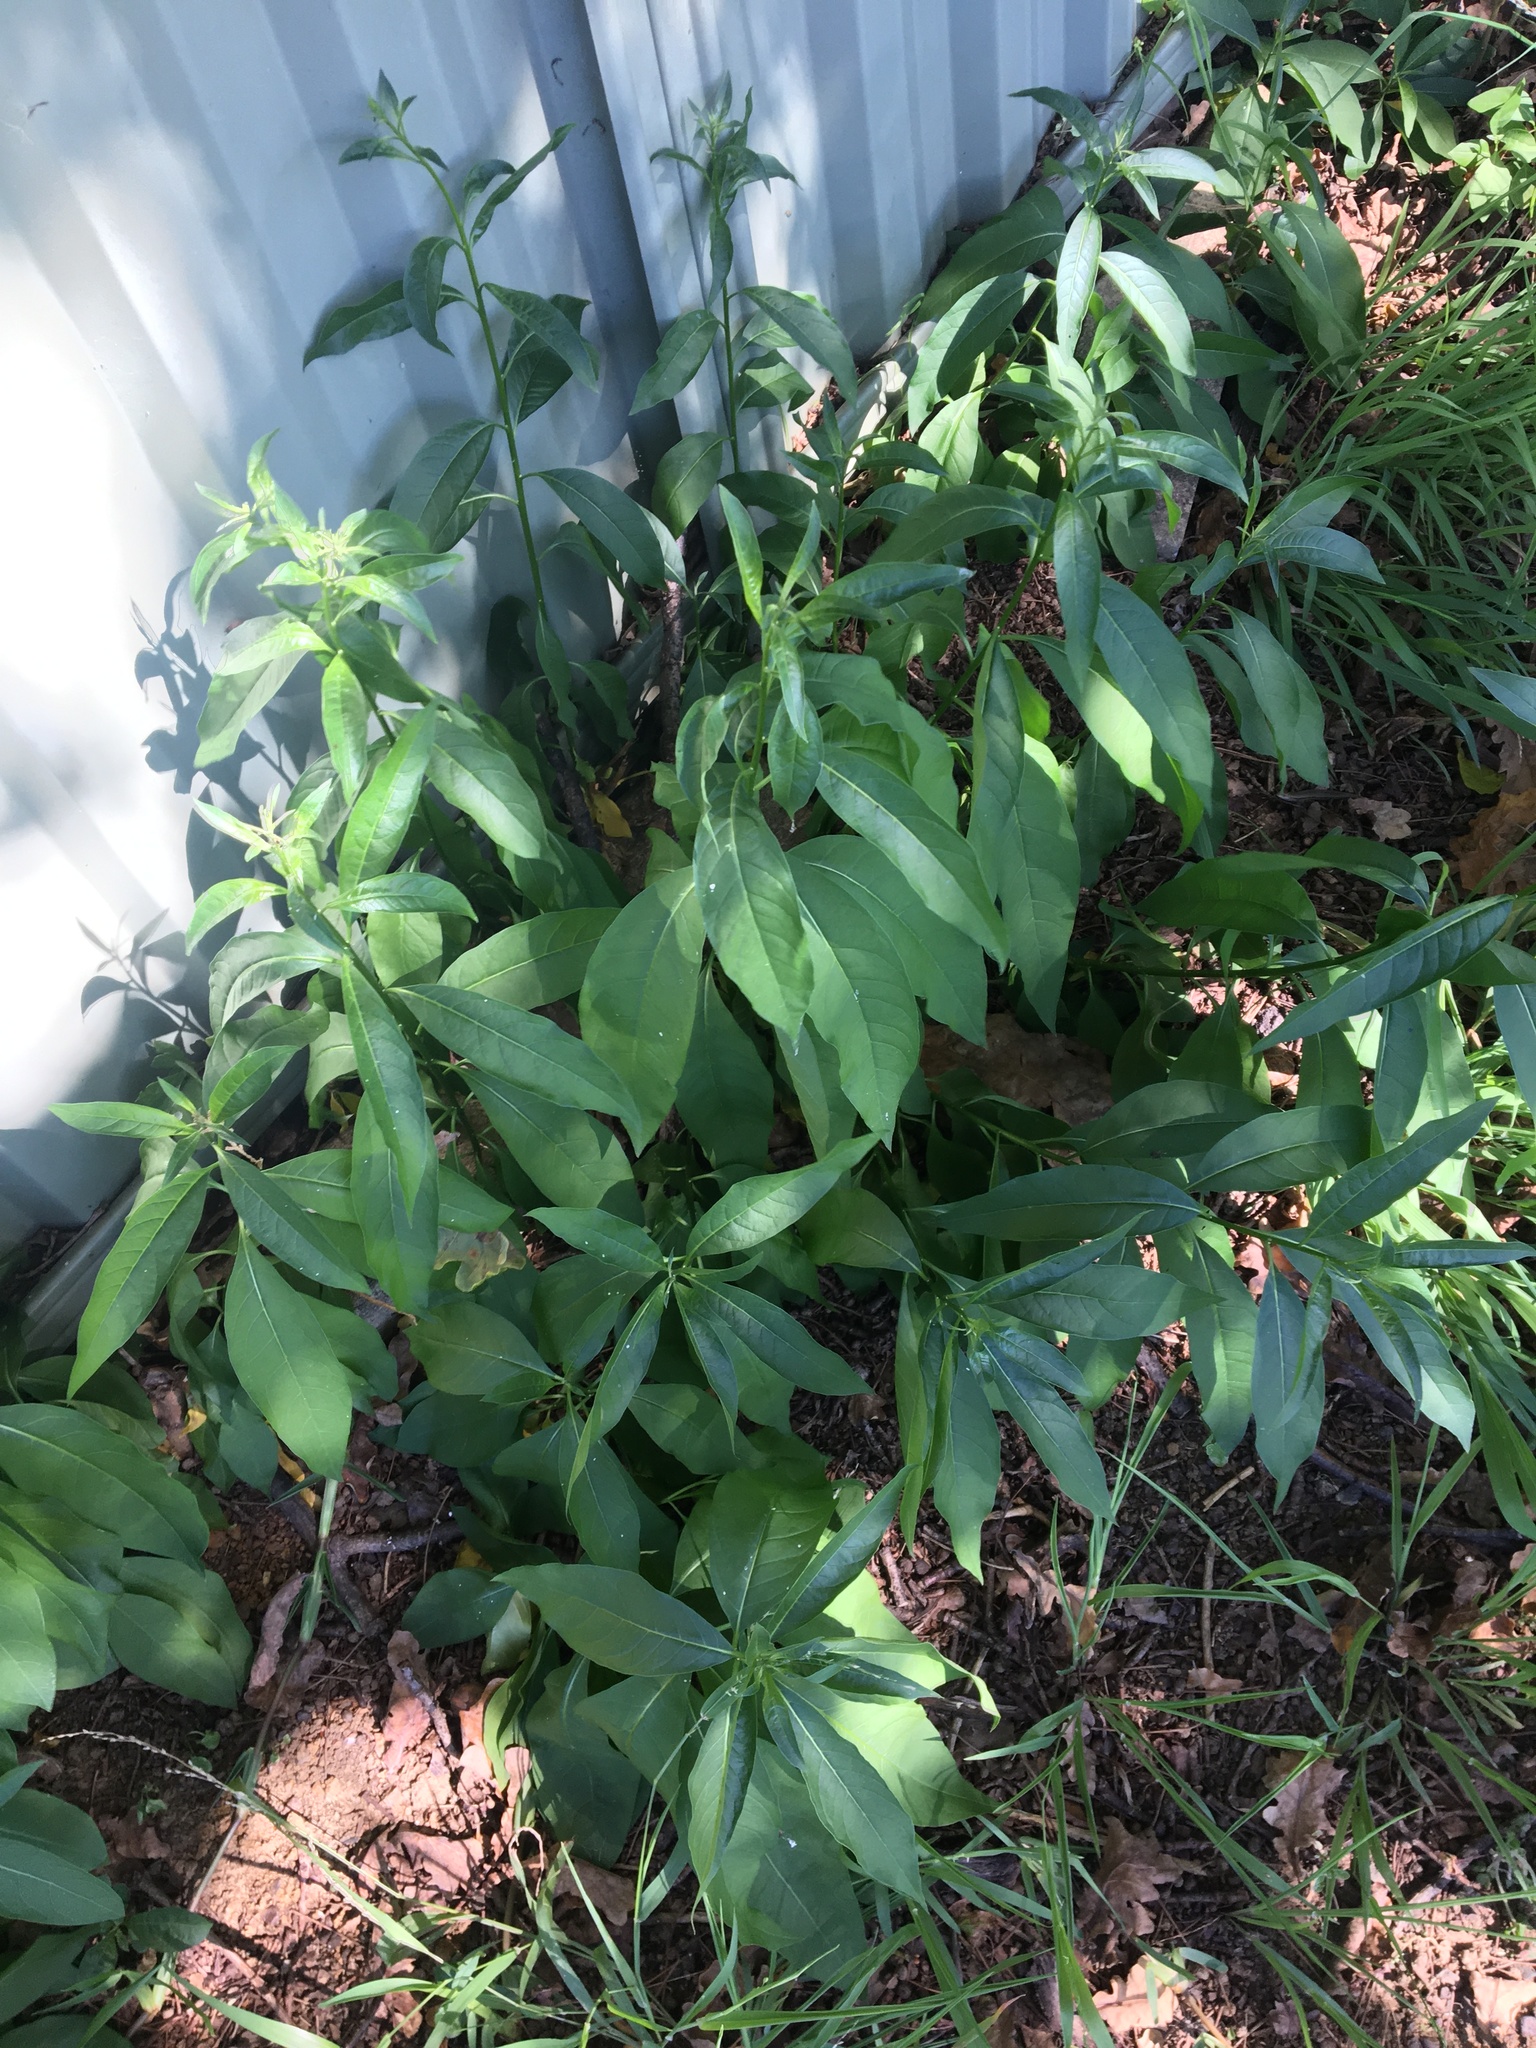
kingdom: Plantae
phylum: Tracheophyta
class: Magnoliopsida
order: Solanales
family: Solanaceae
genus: Cestrum
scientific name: Cestrum parqui
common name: Chilean cestrum
